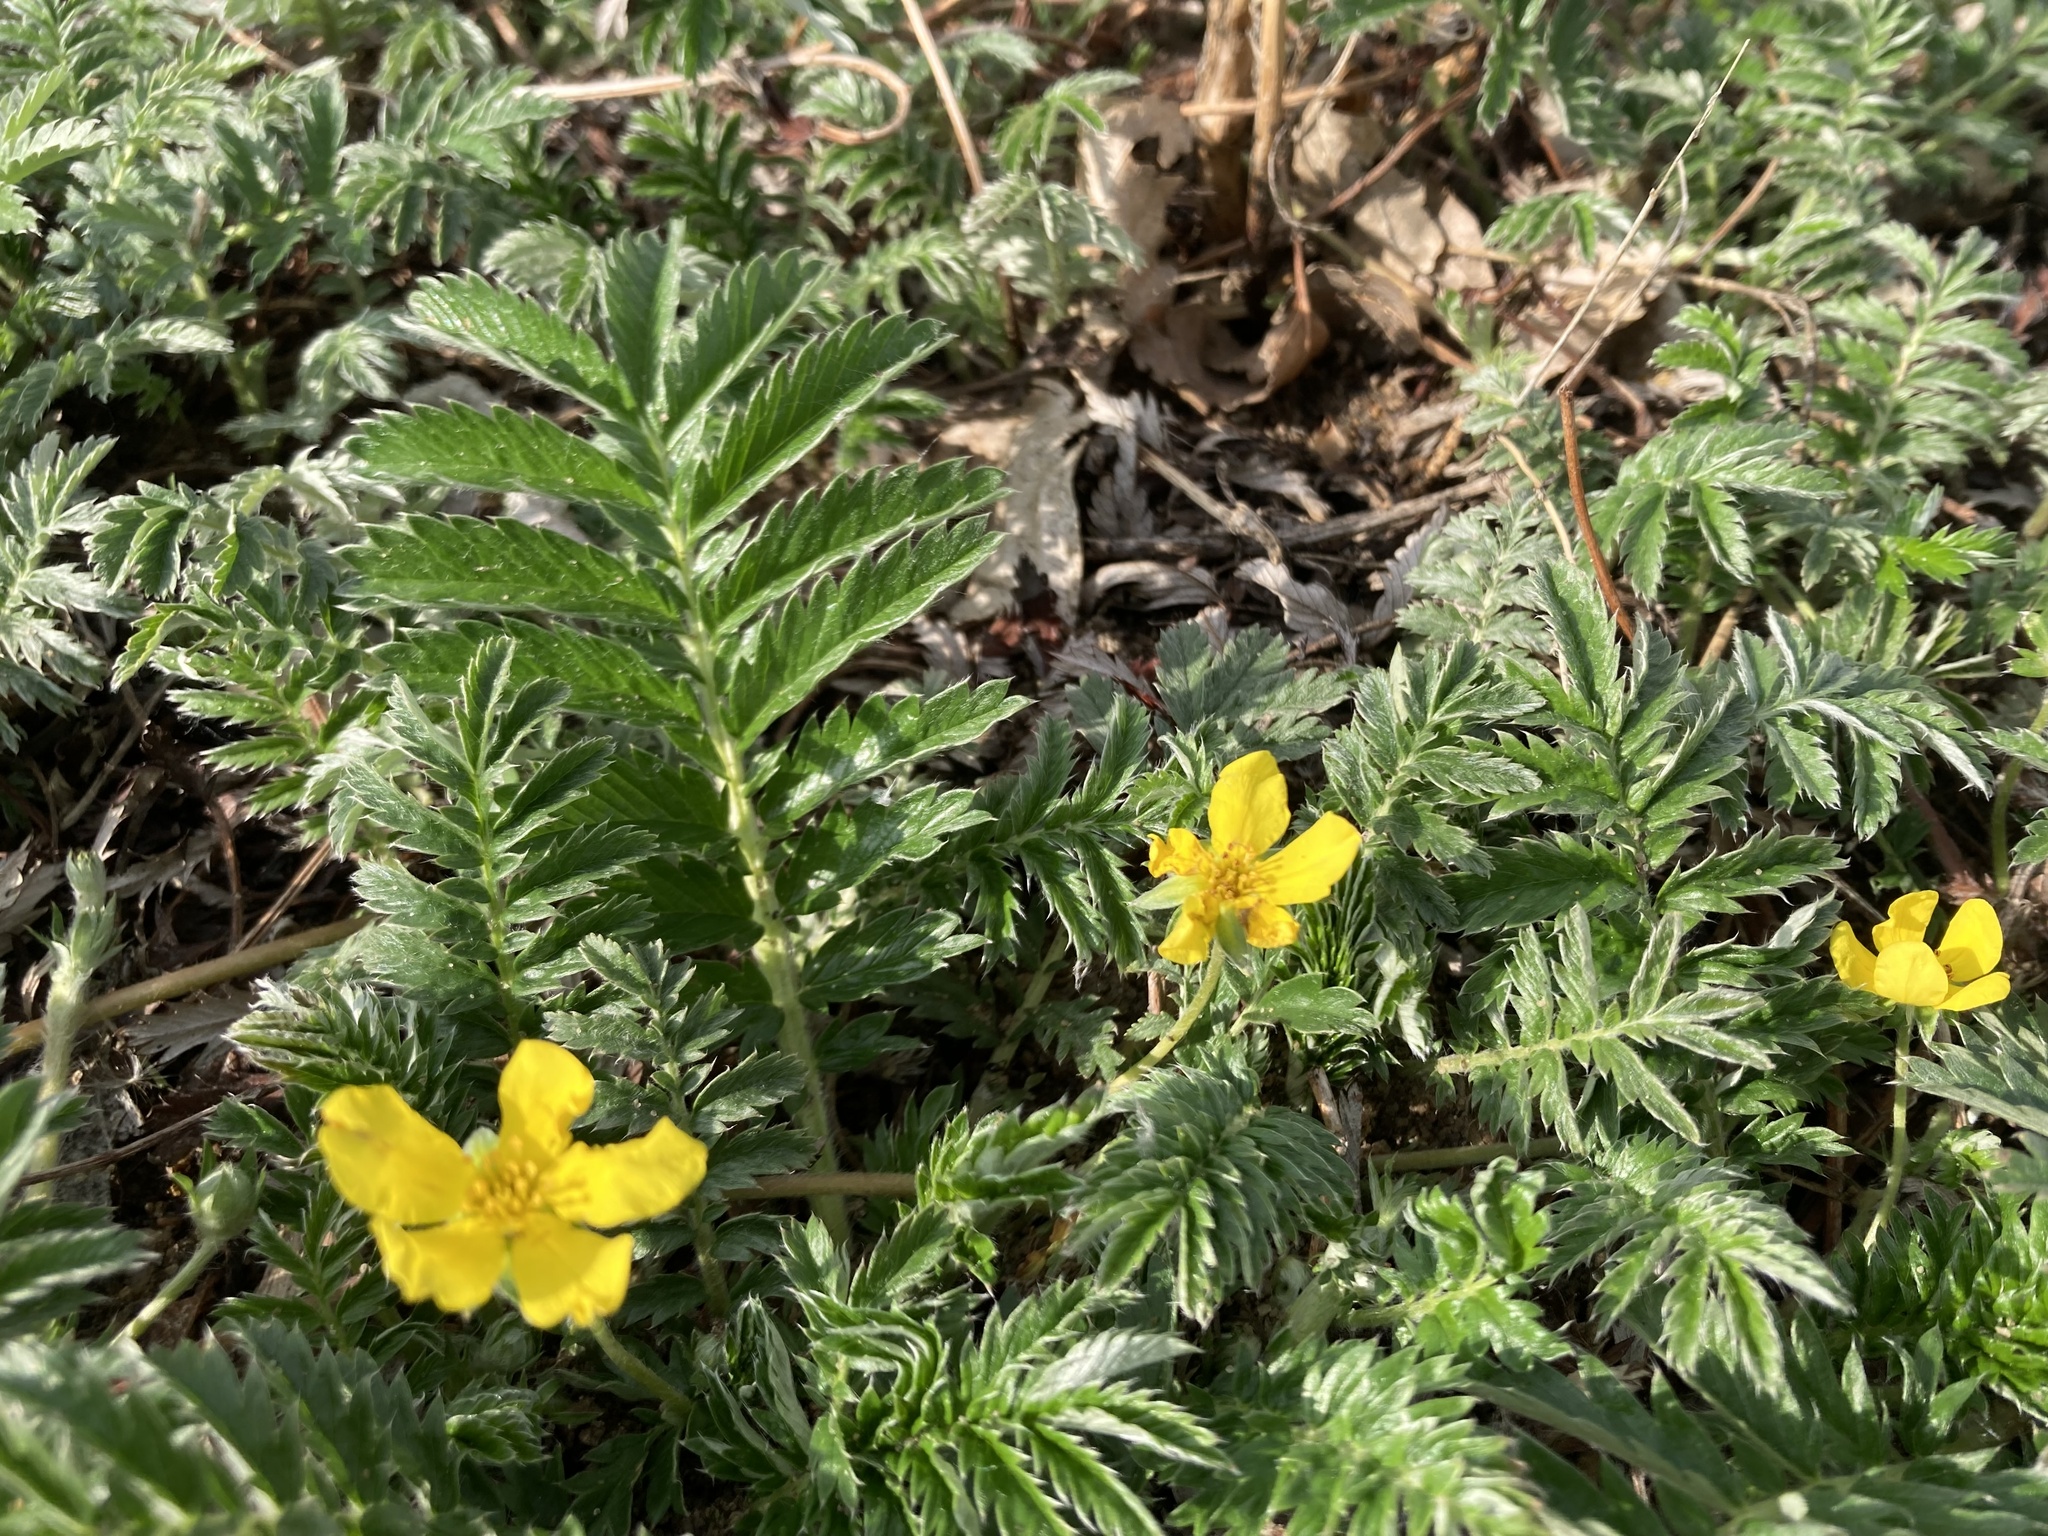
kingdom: Plantae
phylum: Tracheophyta
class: Magnoliopsida
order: Rosales
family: Rosaceae
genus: Argentina
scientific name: Argentina anserina
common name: Common silverweed
